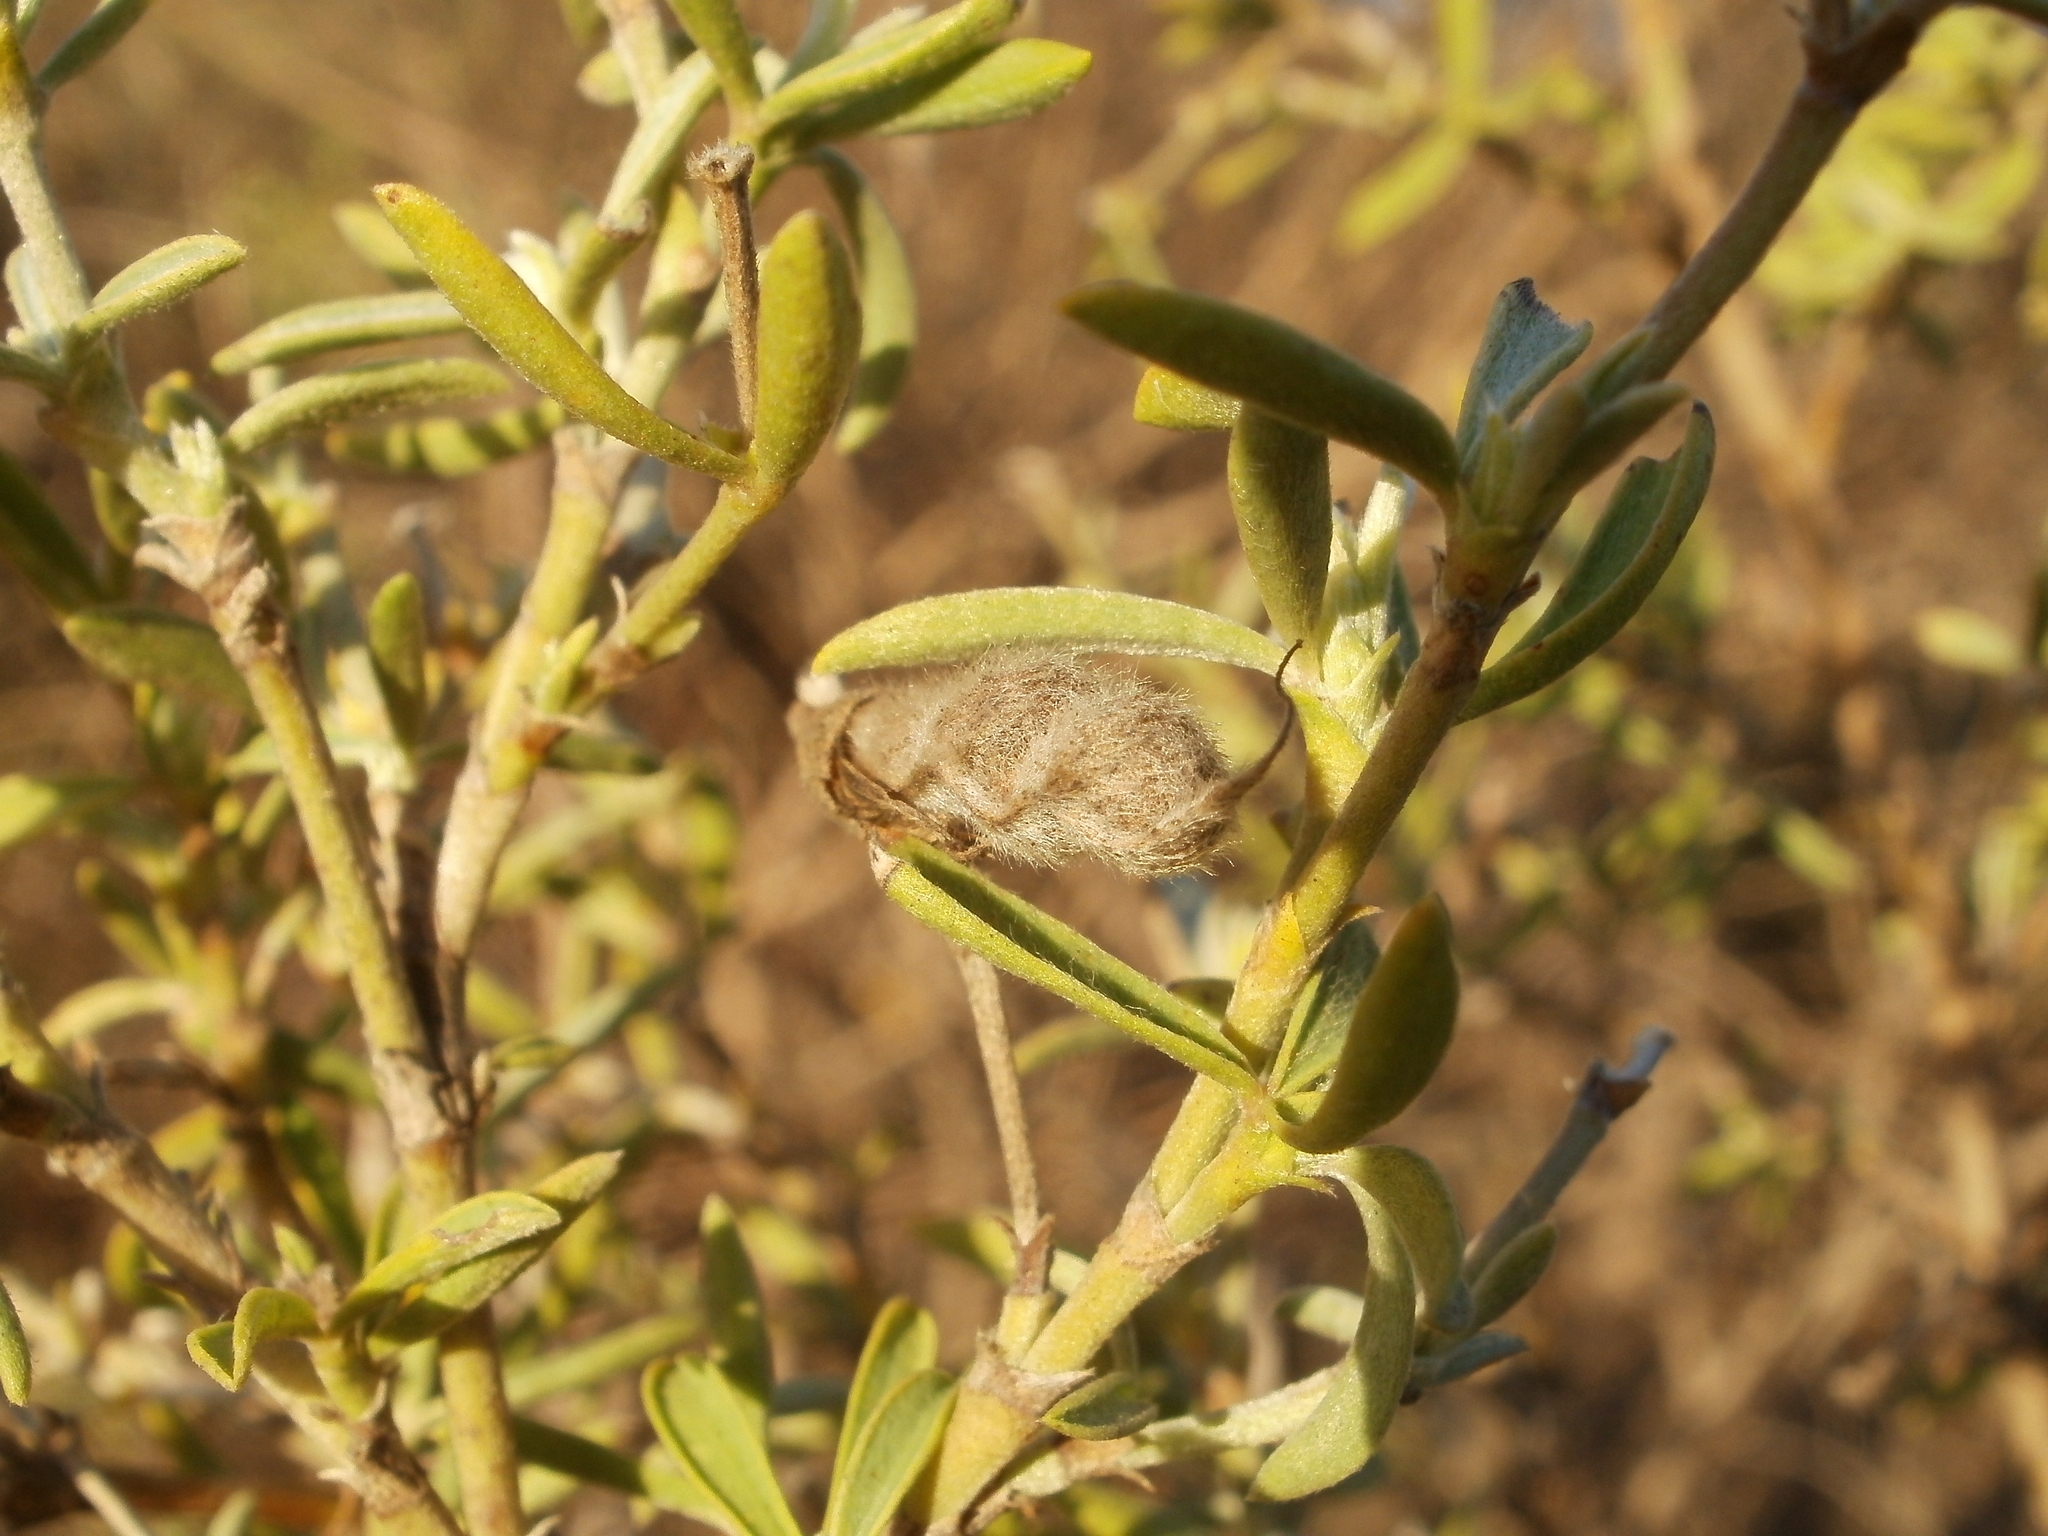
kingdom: Plantae
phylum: Tracheophyta
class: Magnoliopsida
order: Fabales
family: Fabaceae
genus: Polhillia
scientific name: Polhillia ignota
